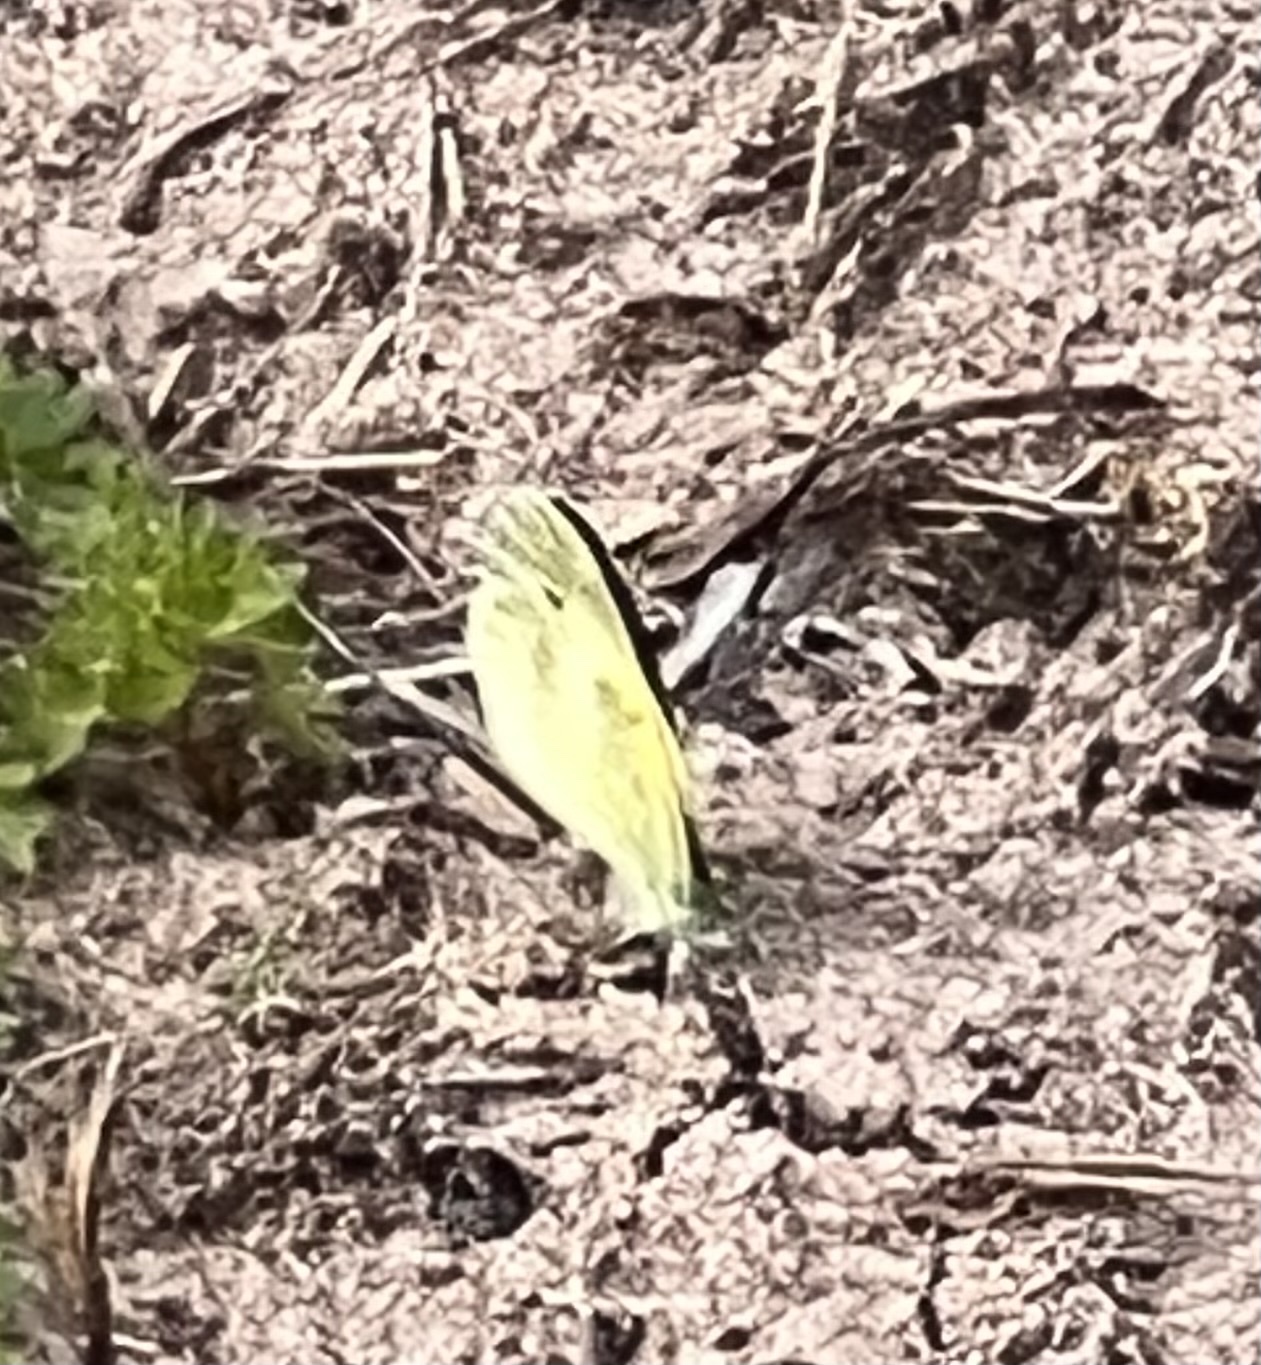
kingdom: Animalia
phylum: Arthropoda
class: Insecta
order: Lepidoptera
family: Pieridae
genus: Nathalis
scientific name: Nathalis iole
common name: Dainty sulphur
